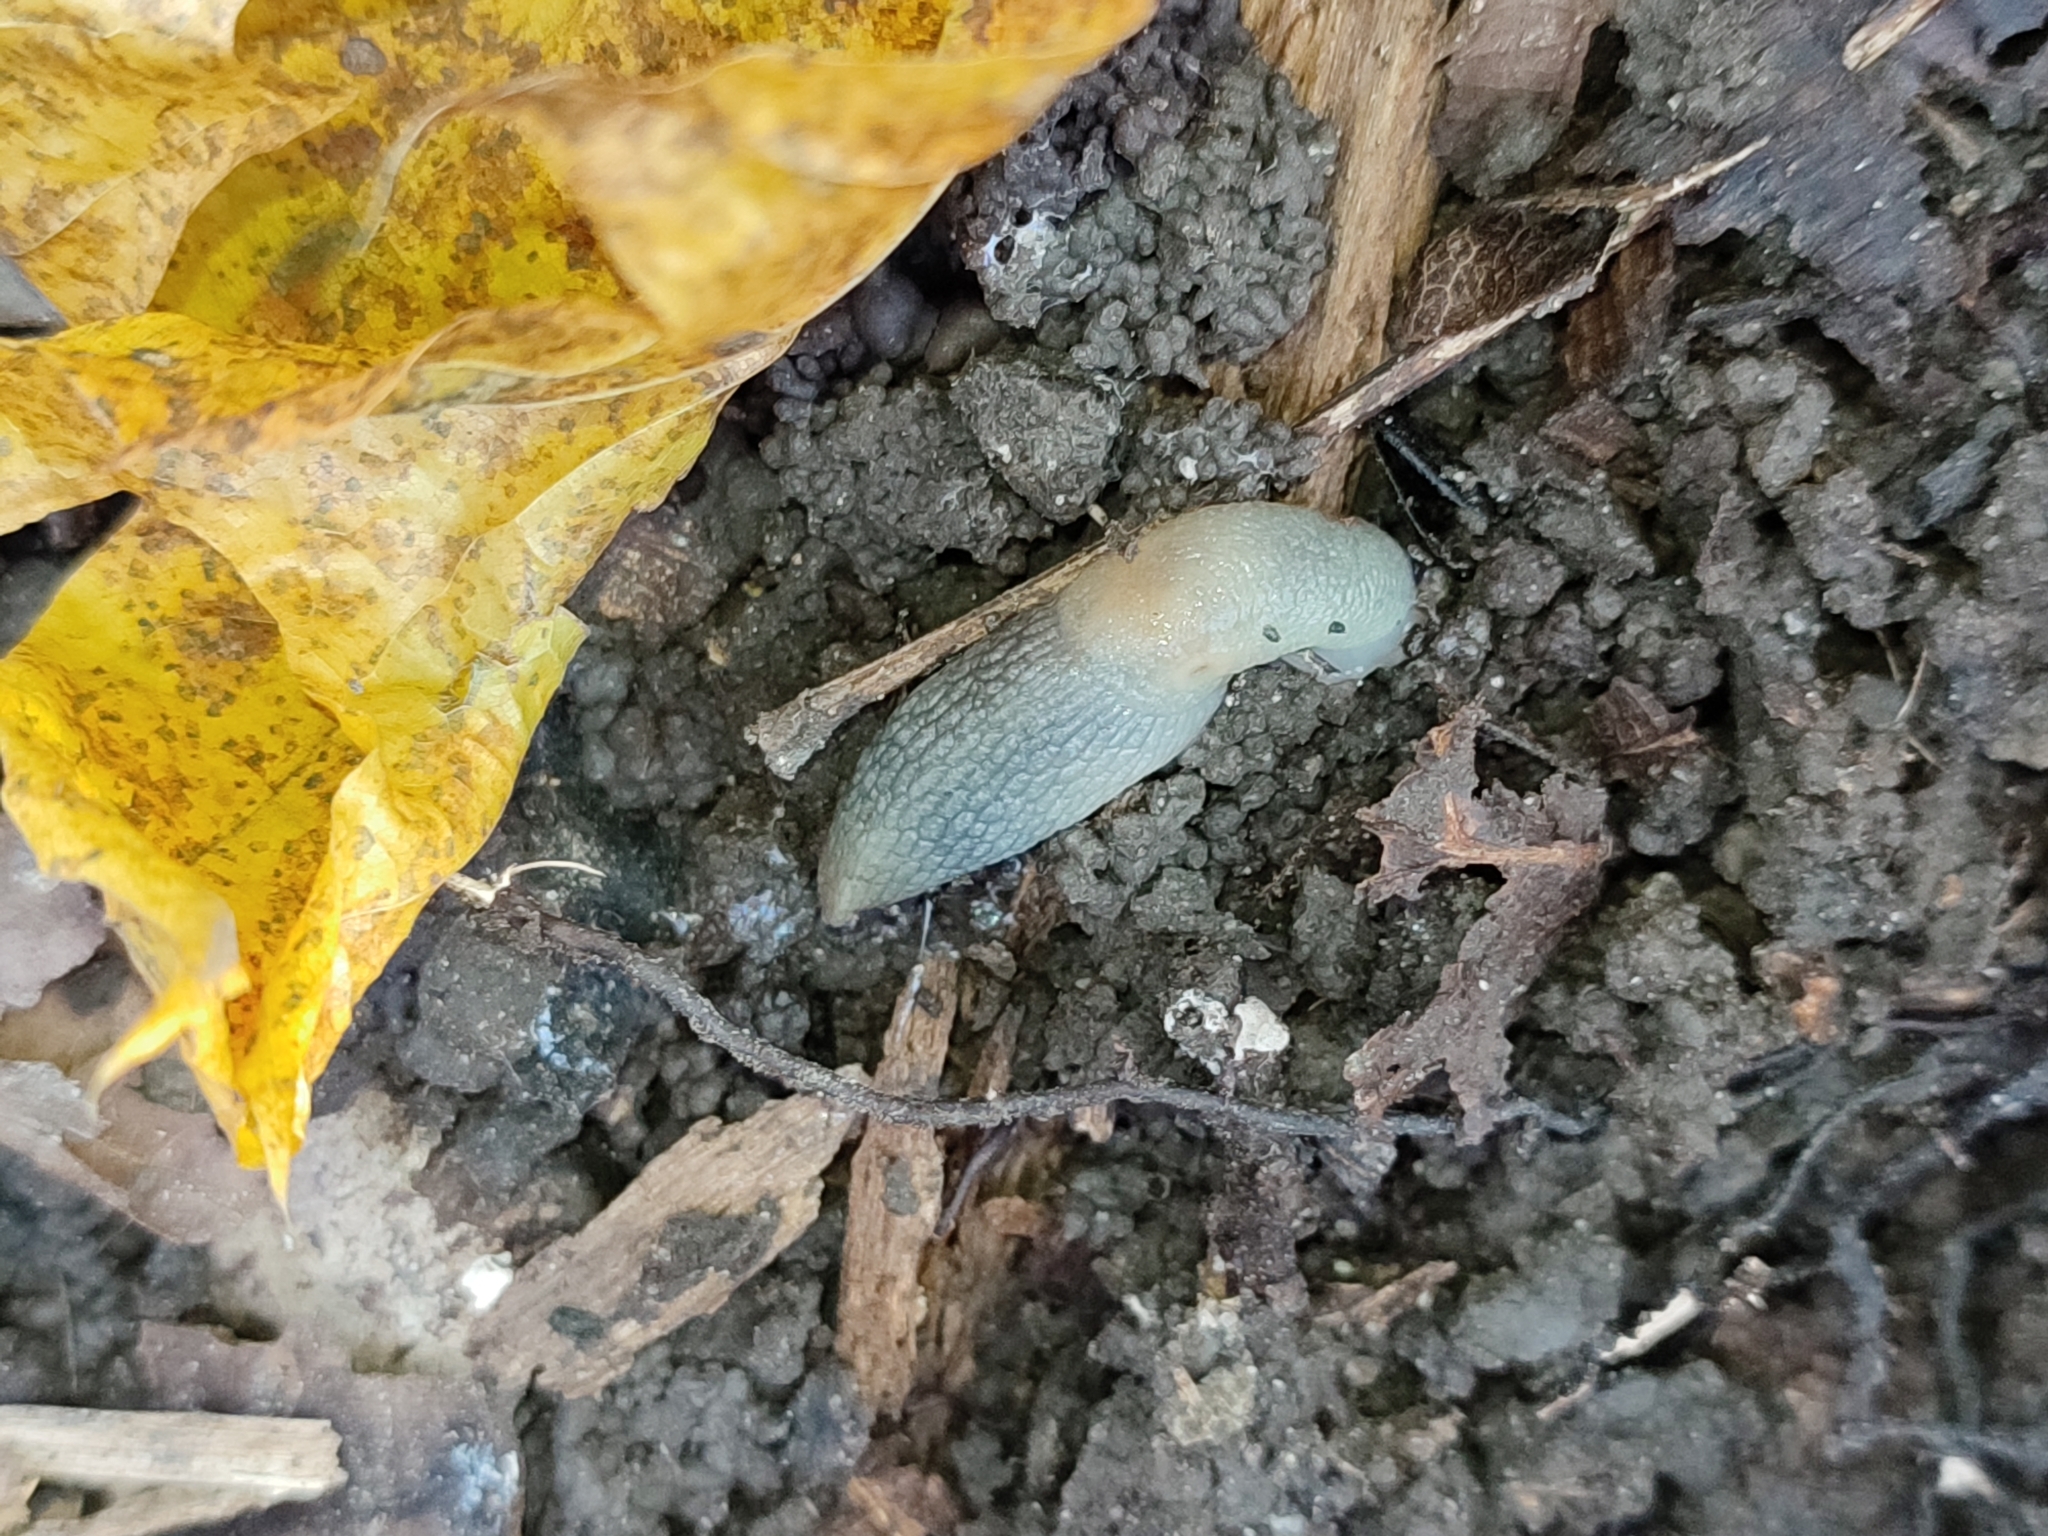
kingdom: Animalia
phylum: Mollusca
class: Gastropoda
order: Stylommatophora
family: Agriolimacidae
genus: Krynickillus
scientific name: Krynickillus melanocephalus
